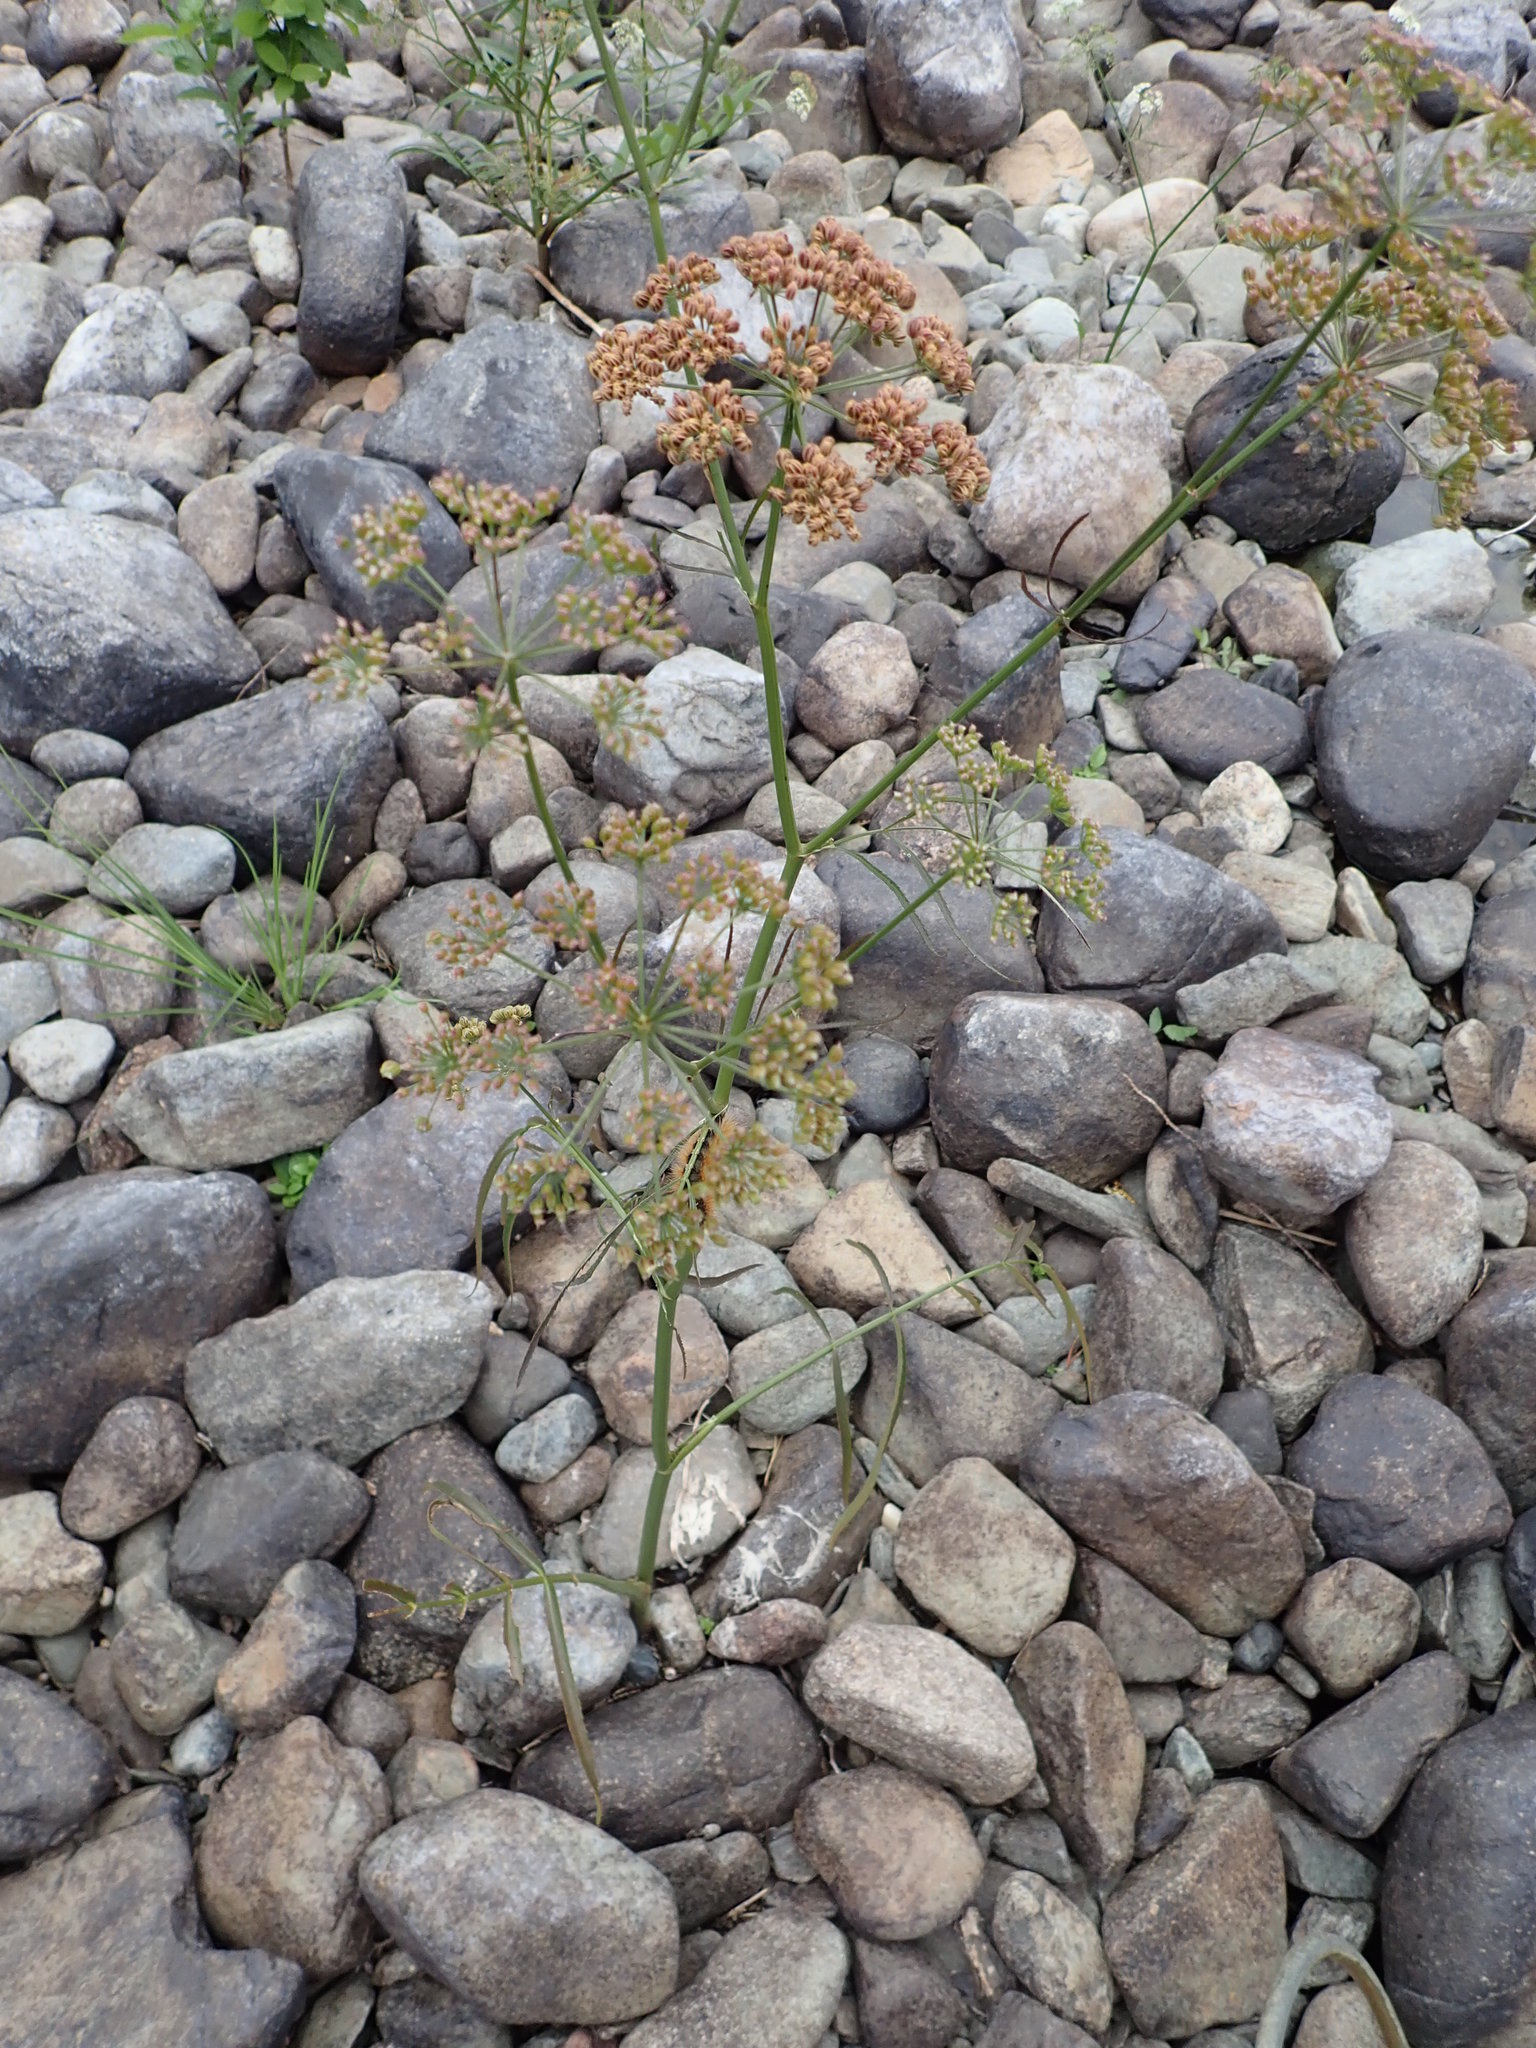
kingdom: Plantae
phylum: Tracheophyta
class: Magnoliopsida
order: Apiales
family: Apiaceae
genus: Sium
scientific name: Sium suave
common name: Hemlock water-parsnip
